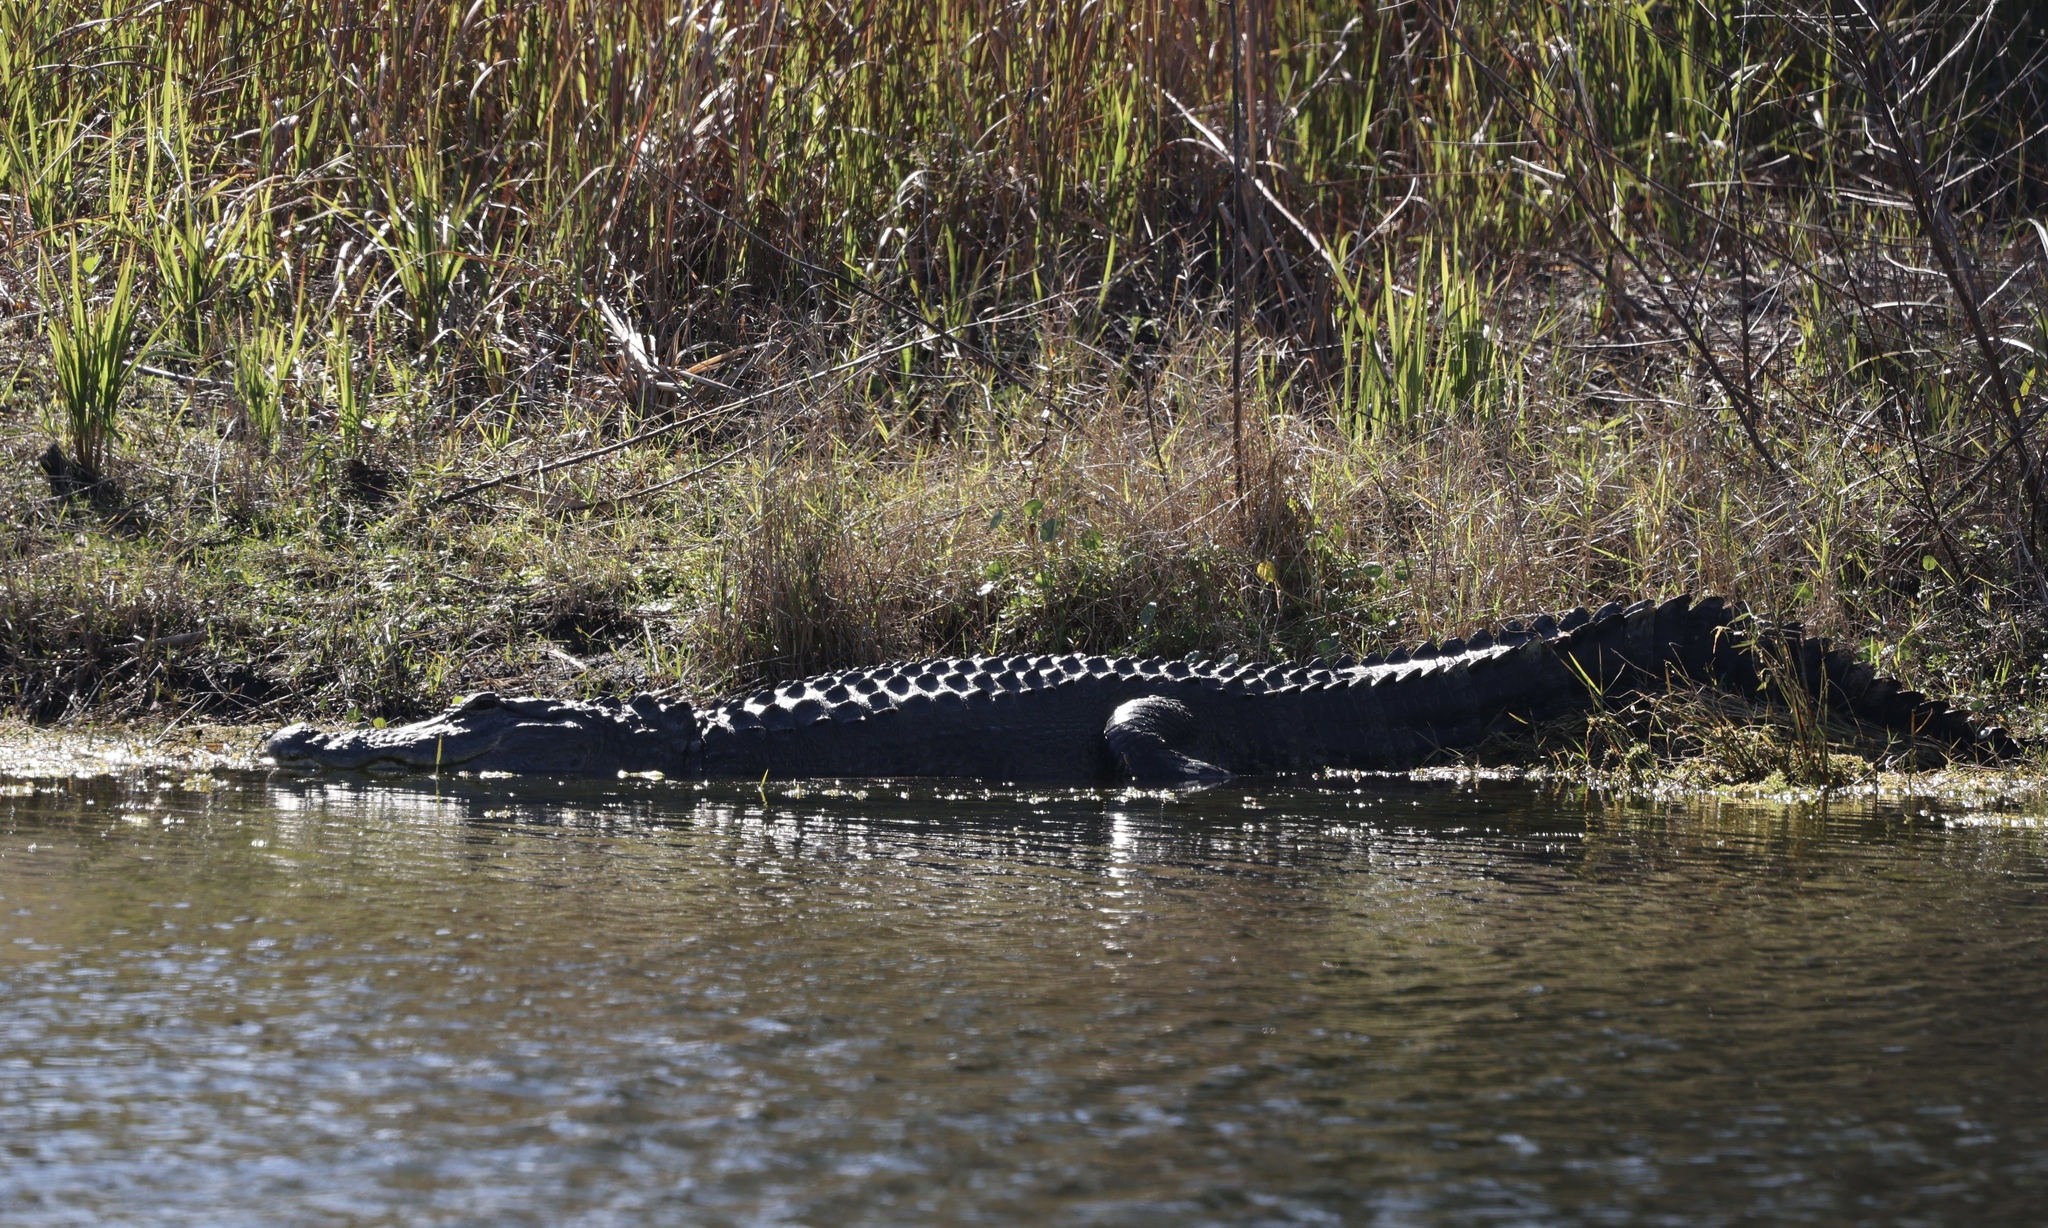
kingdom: Animalia
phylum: Chordata
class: Crocodylia
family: Alligatoridae
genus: Alligator
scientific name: Alligator mississippiensis
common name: American alligator
